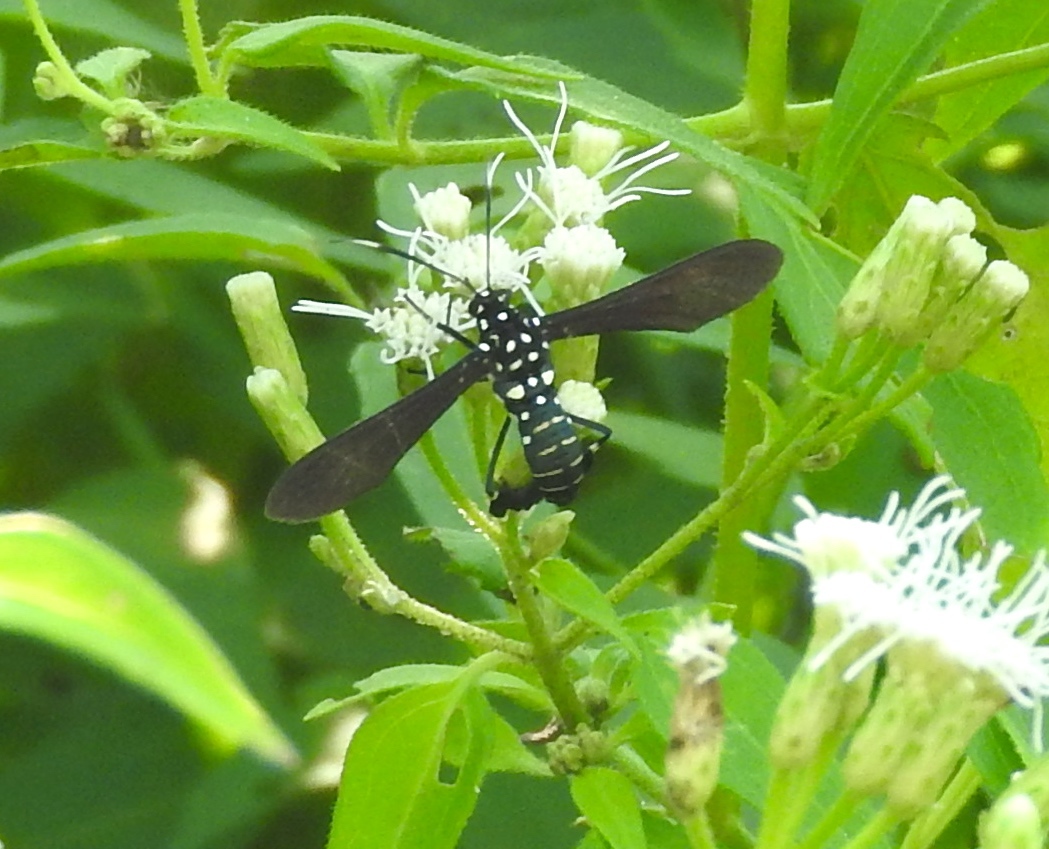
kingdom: Animalia
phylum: Arthropoda
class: Insecta
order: Lepidoptera
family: Erebidae
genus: Horama
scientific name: Horama plumipes
